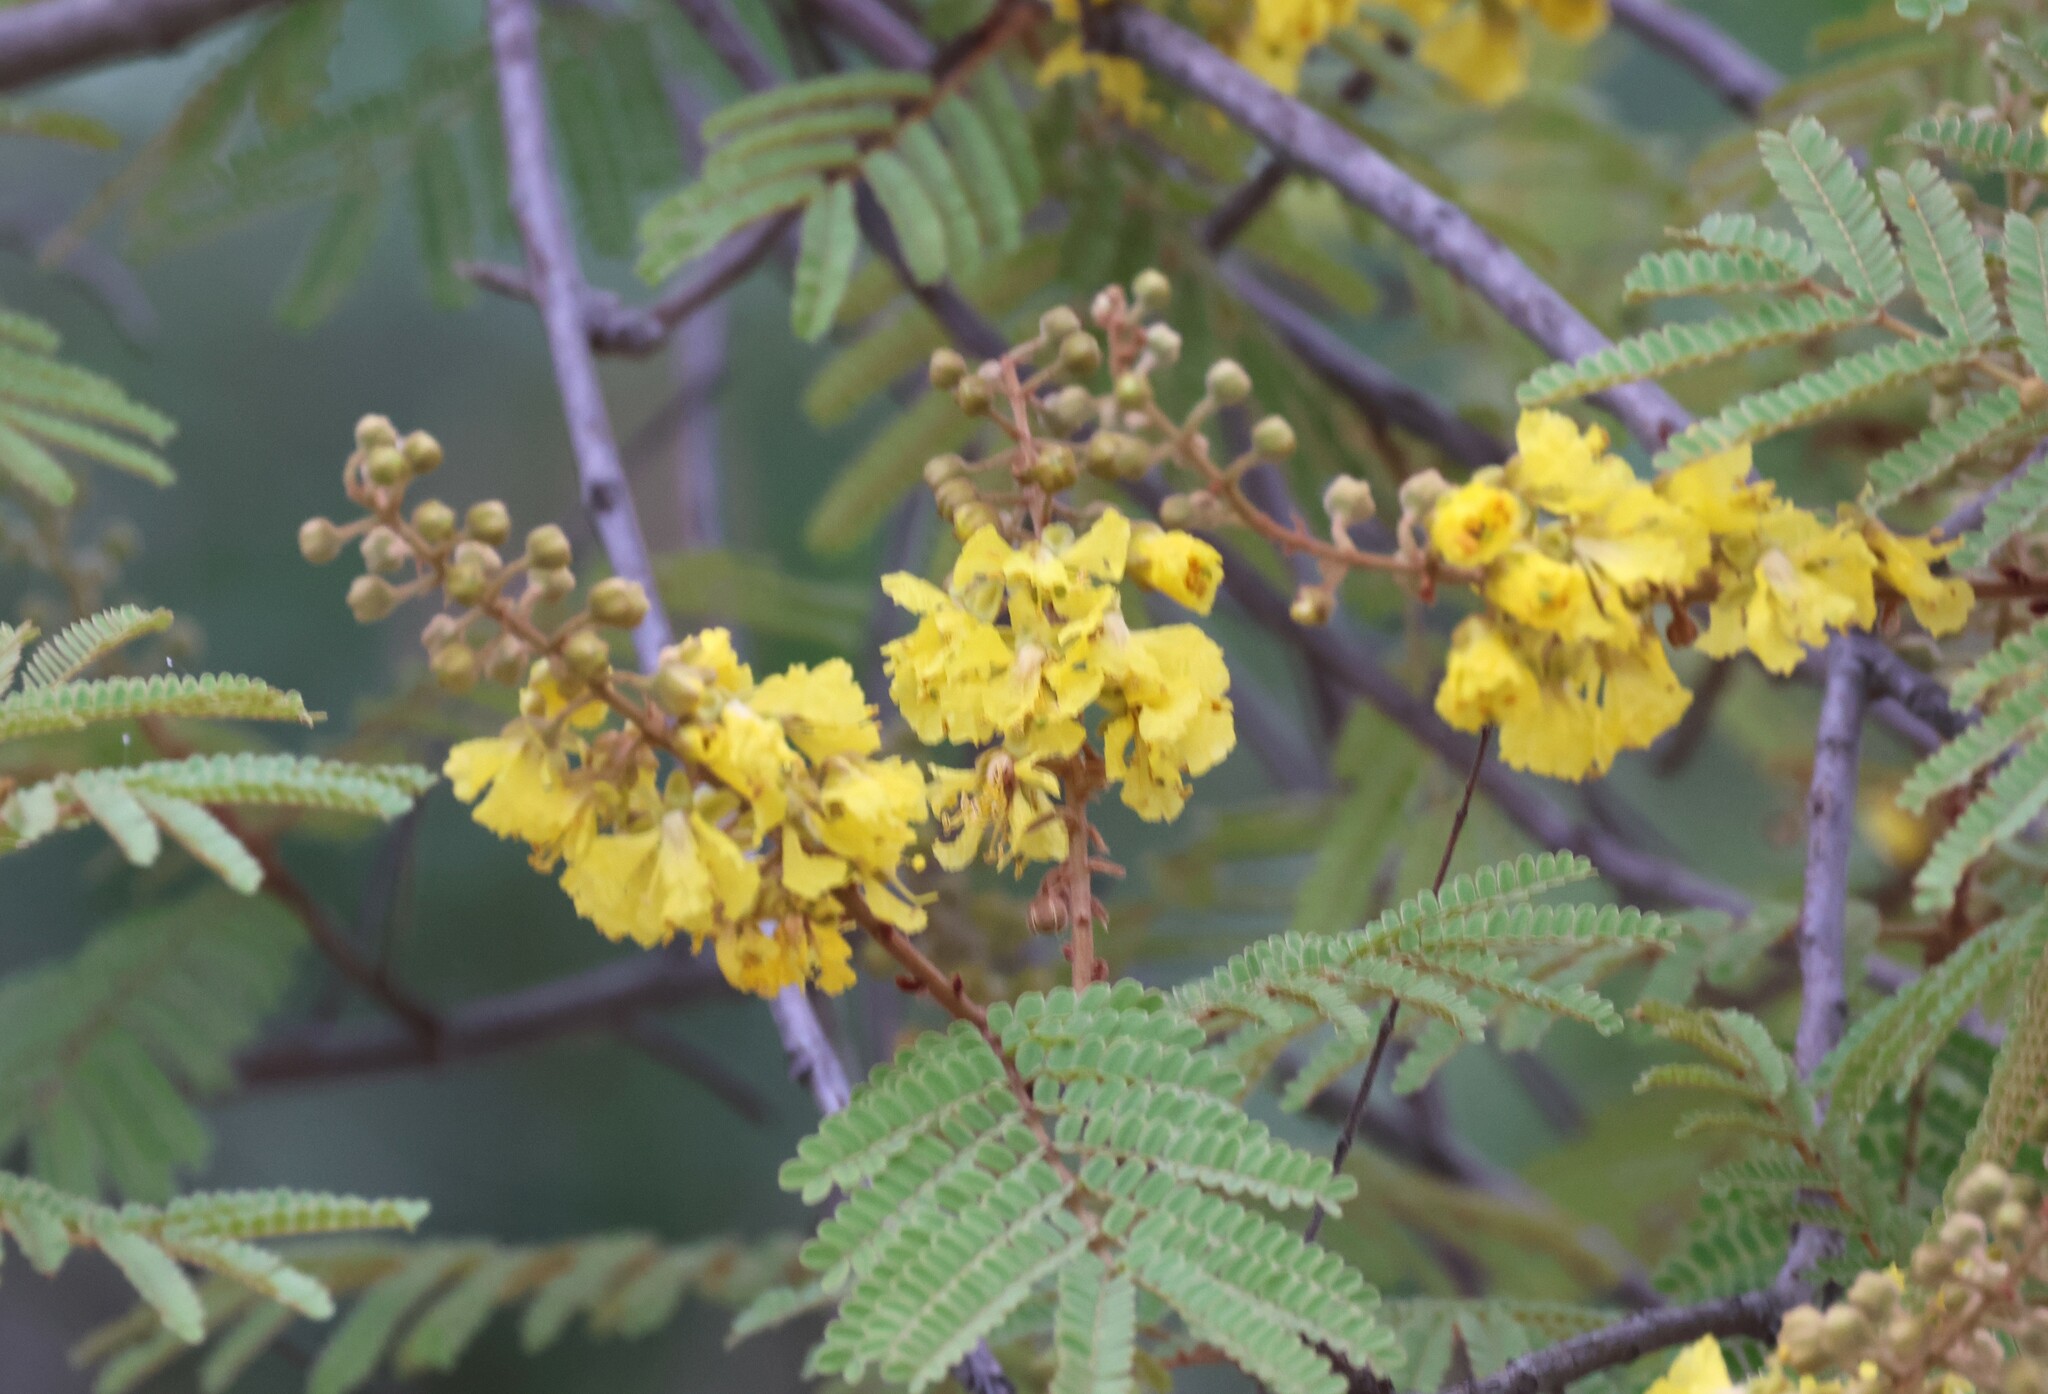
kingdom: Plantae
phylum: Tracheophyta
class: Magnoliopsida
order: Fabales
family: Fabaceae
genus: Peltophorum
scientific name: Peltophorum africanum
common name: African black wattle
